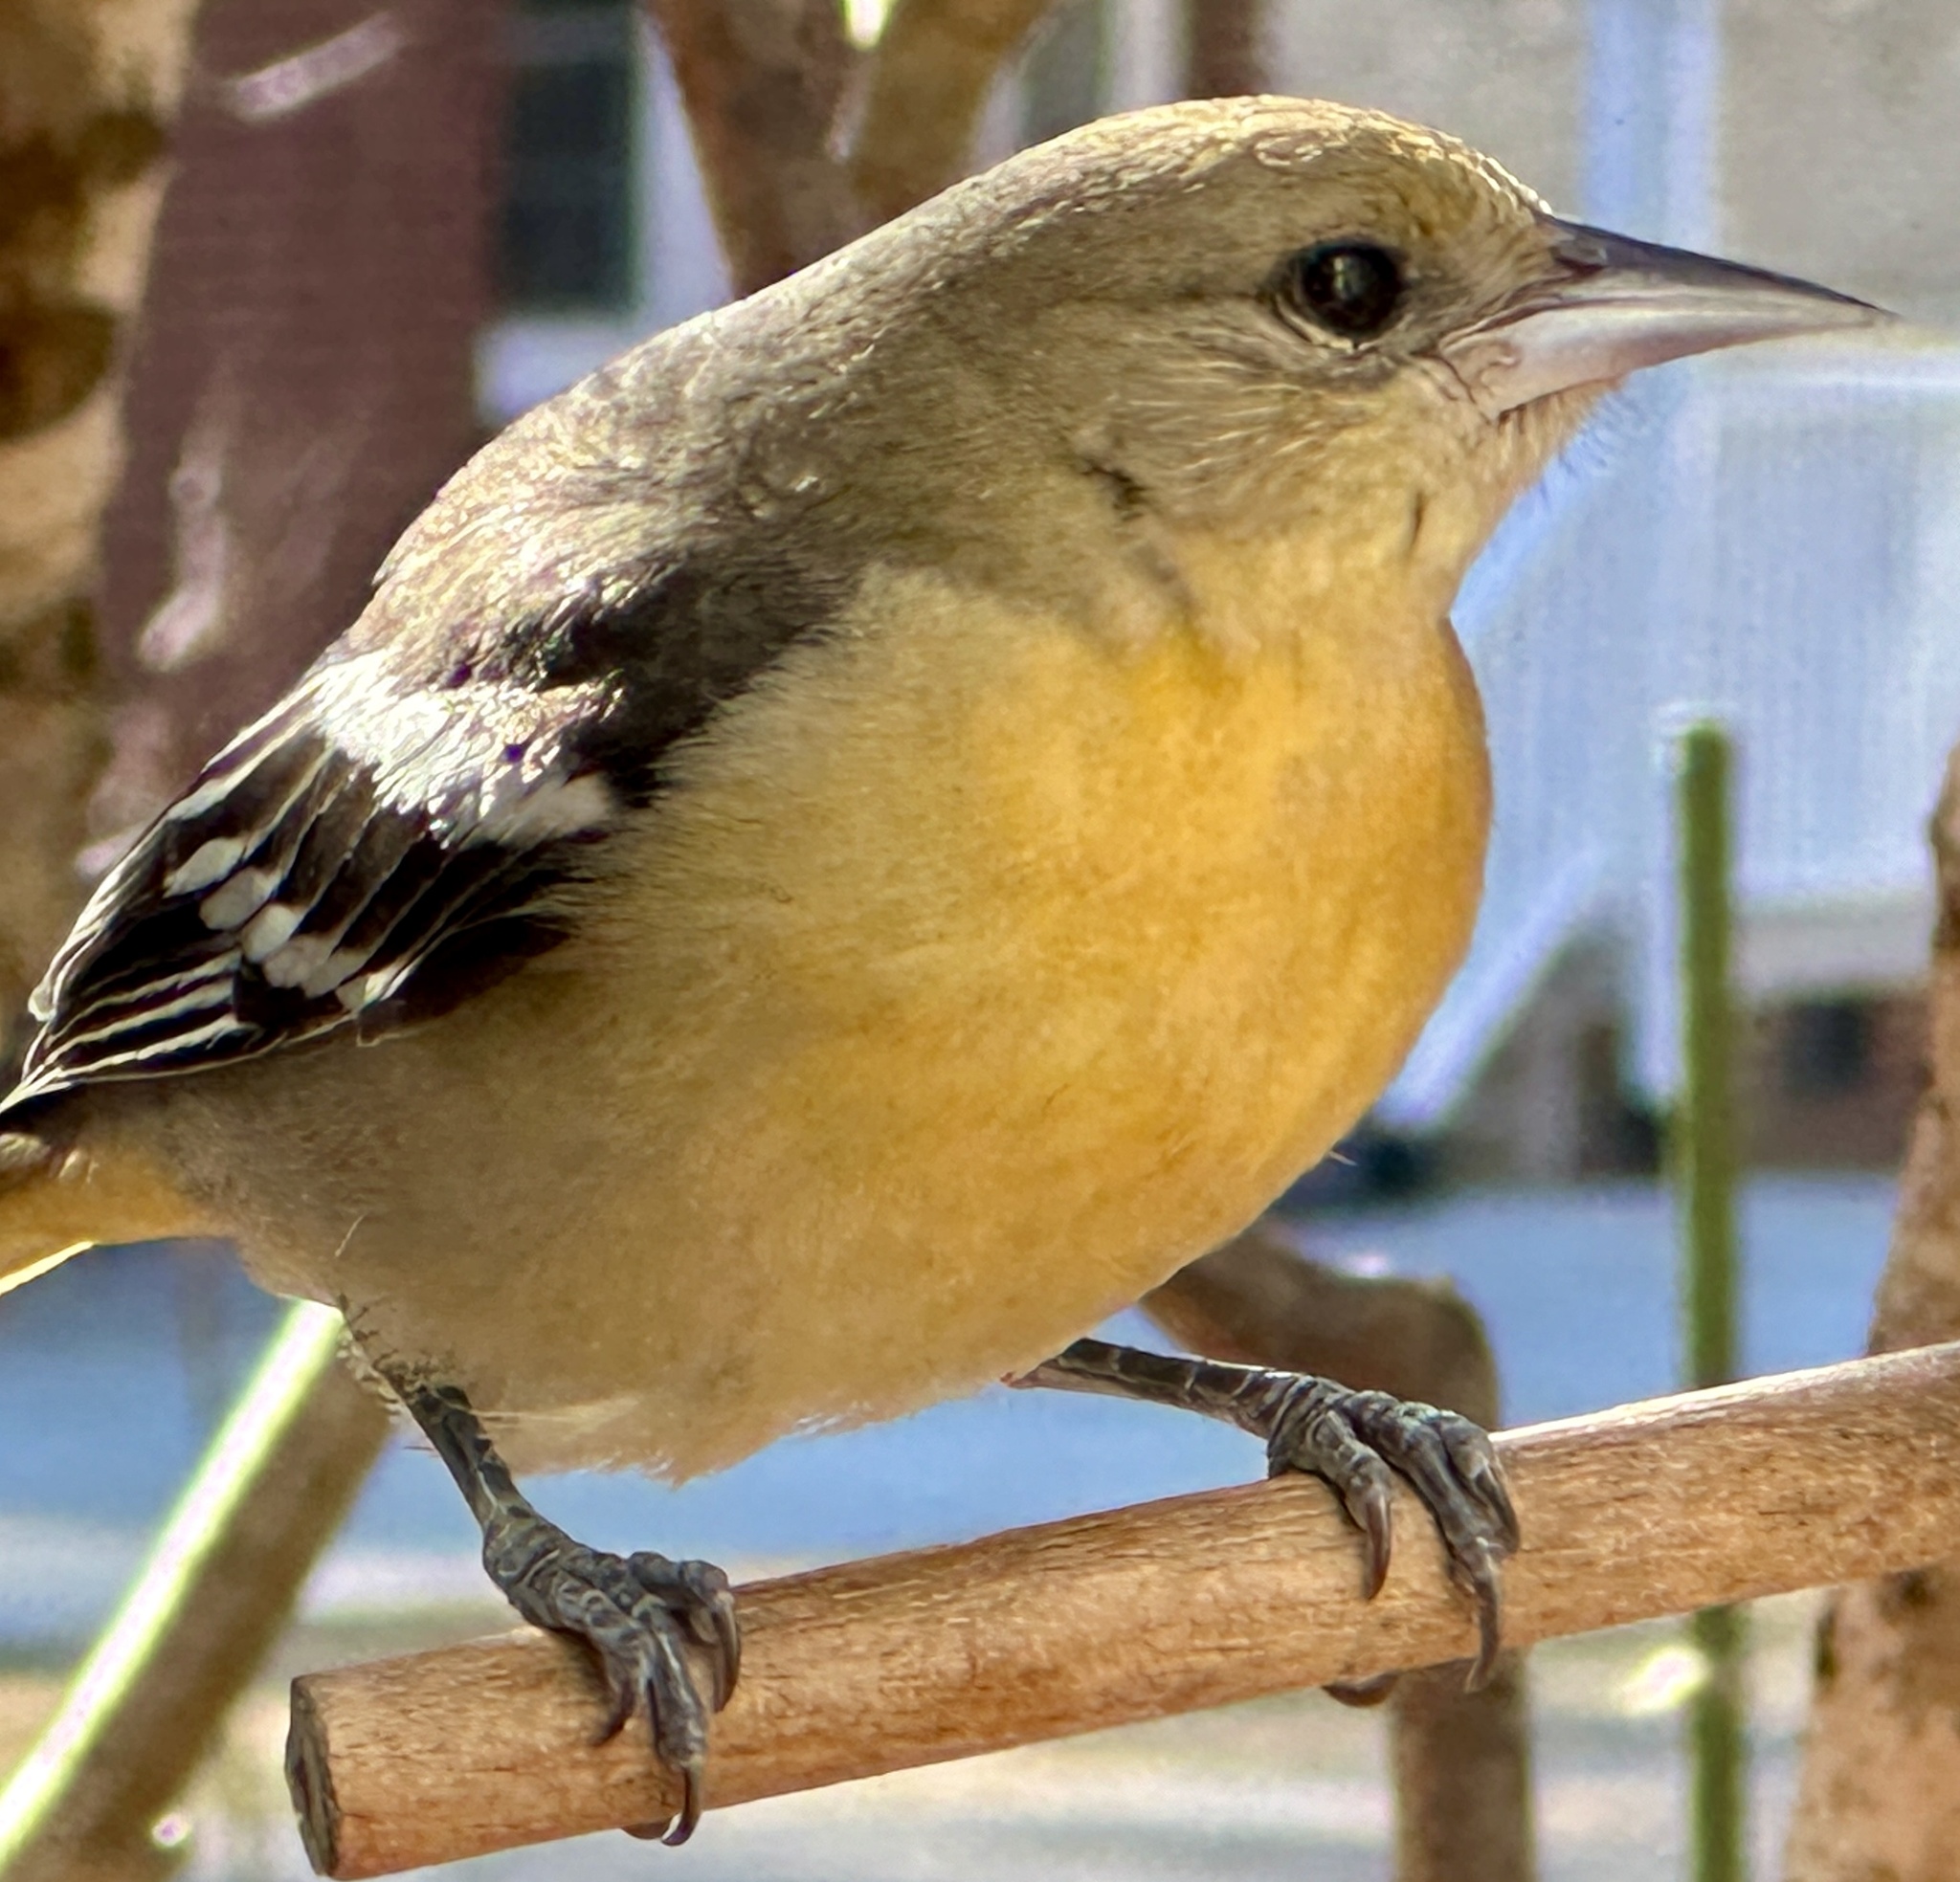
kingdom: Animalia
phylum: Chordata
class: Aves
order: Passeriformes
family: Icteridae
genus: Icterus
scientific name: Icterus galbula
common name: Baltimore oriole
